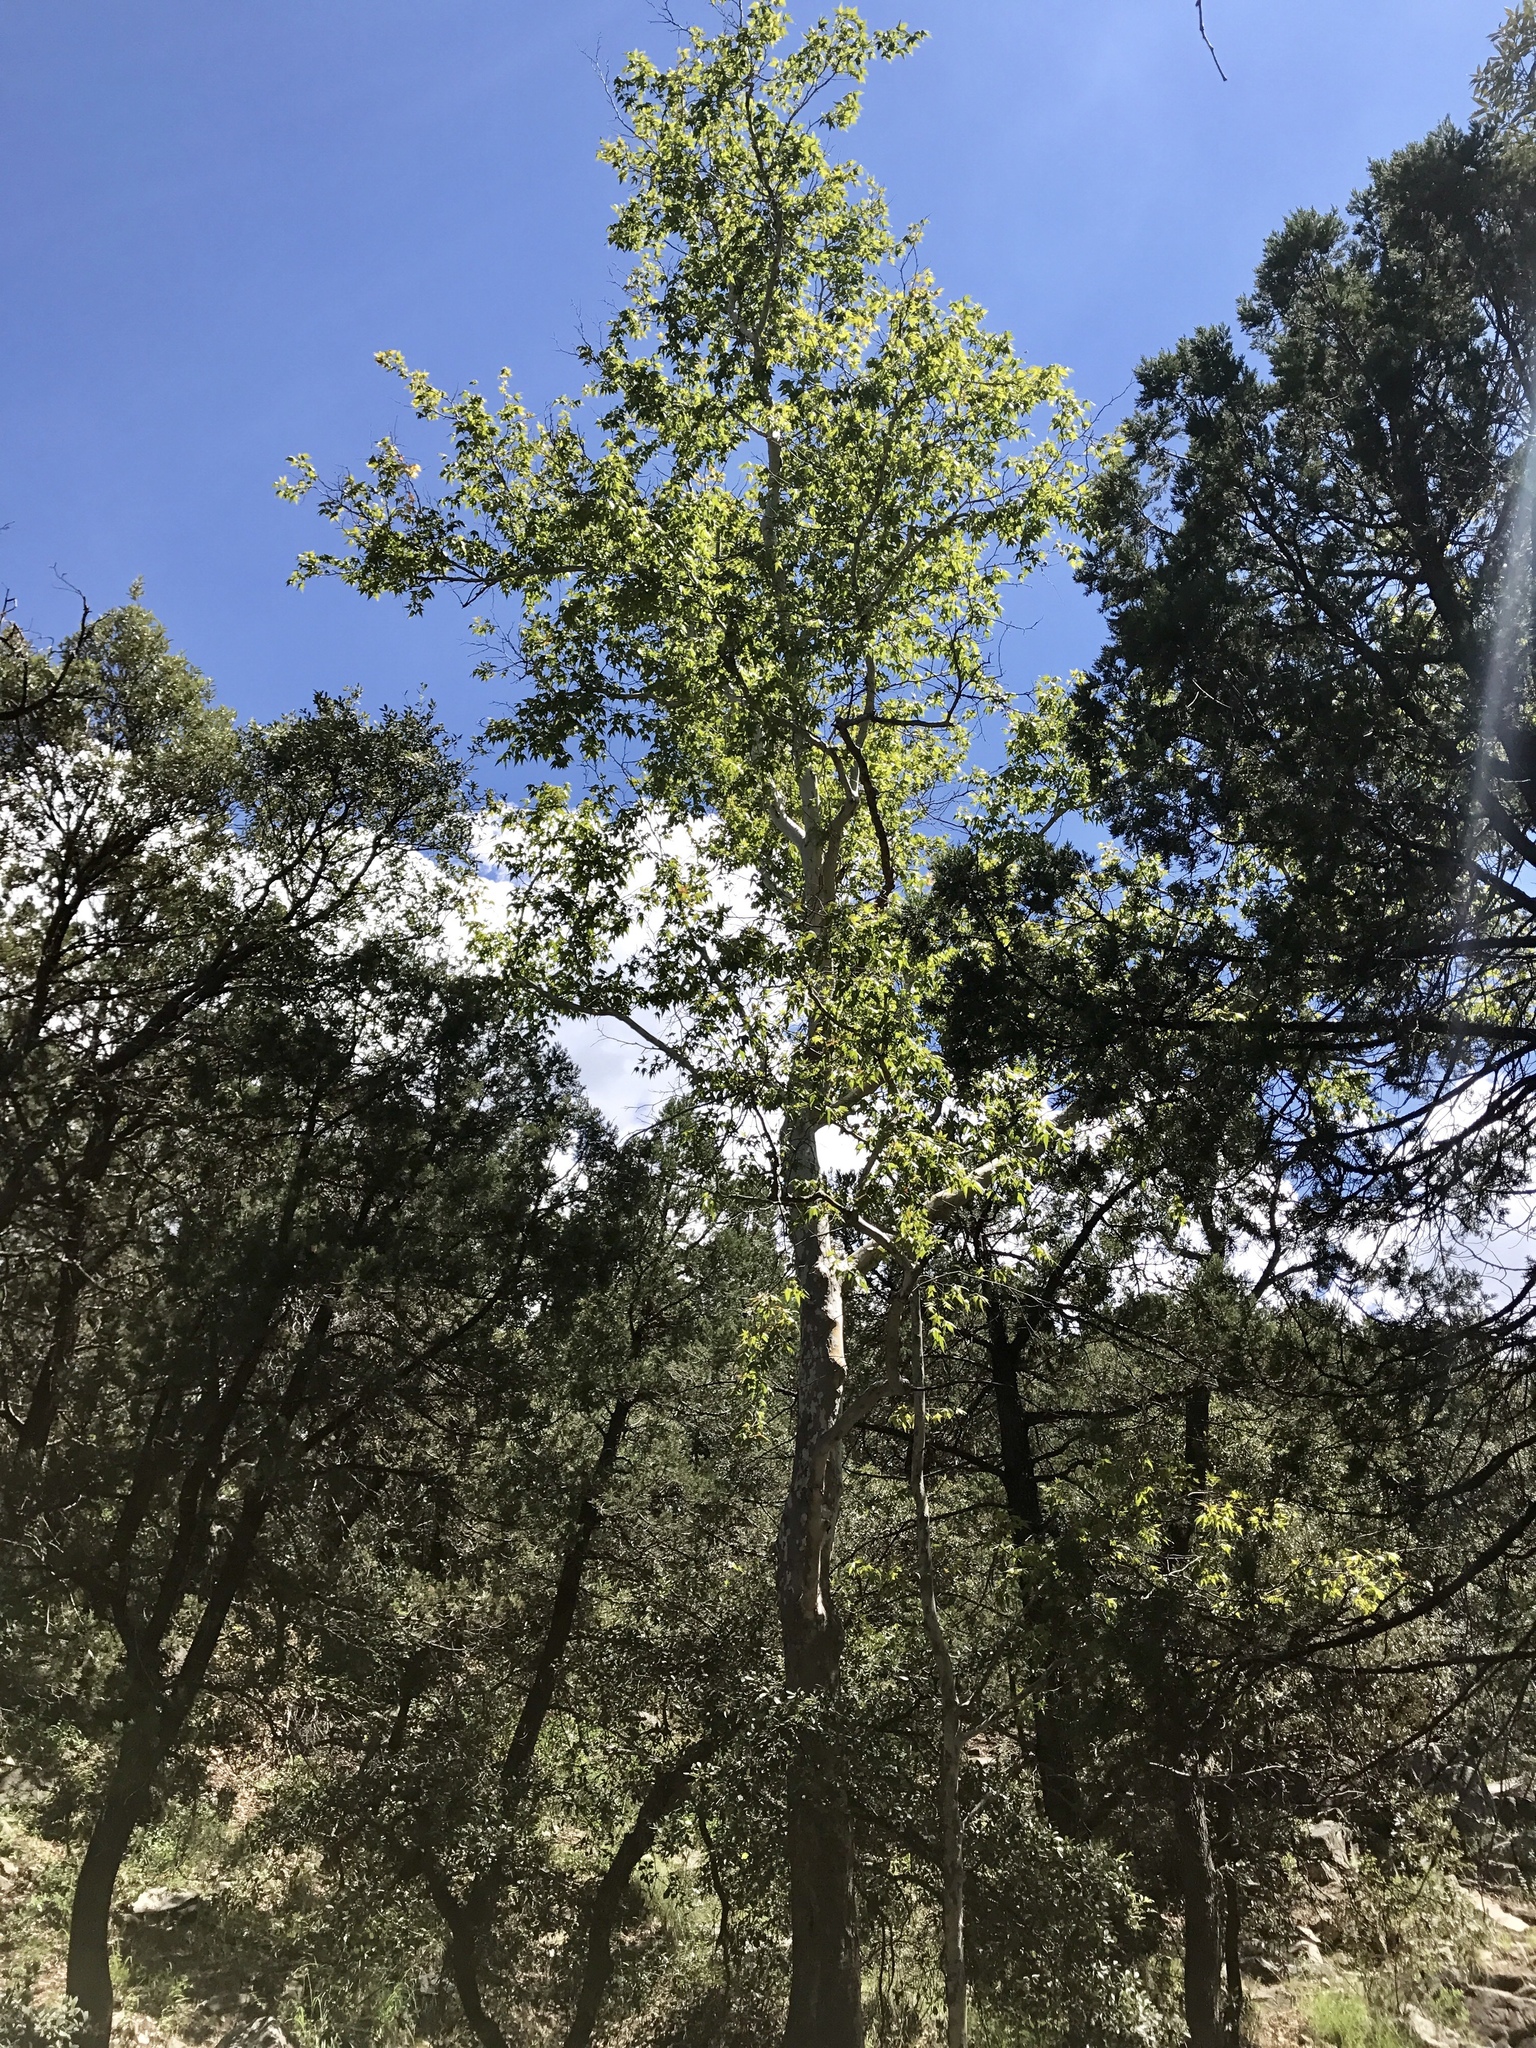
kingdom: Plantae
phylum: Tracheophyta
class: Magnoliopsida
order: Proteales
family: Platanaceae
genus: Platanus
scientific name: Platanus wrightii
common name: Arizona sycamore
